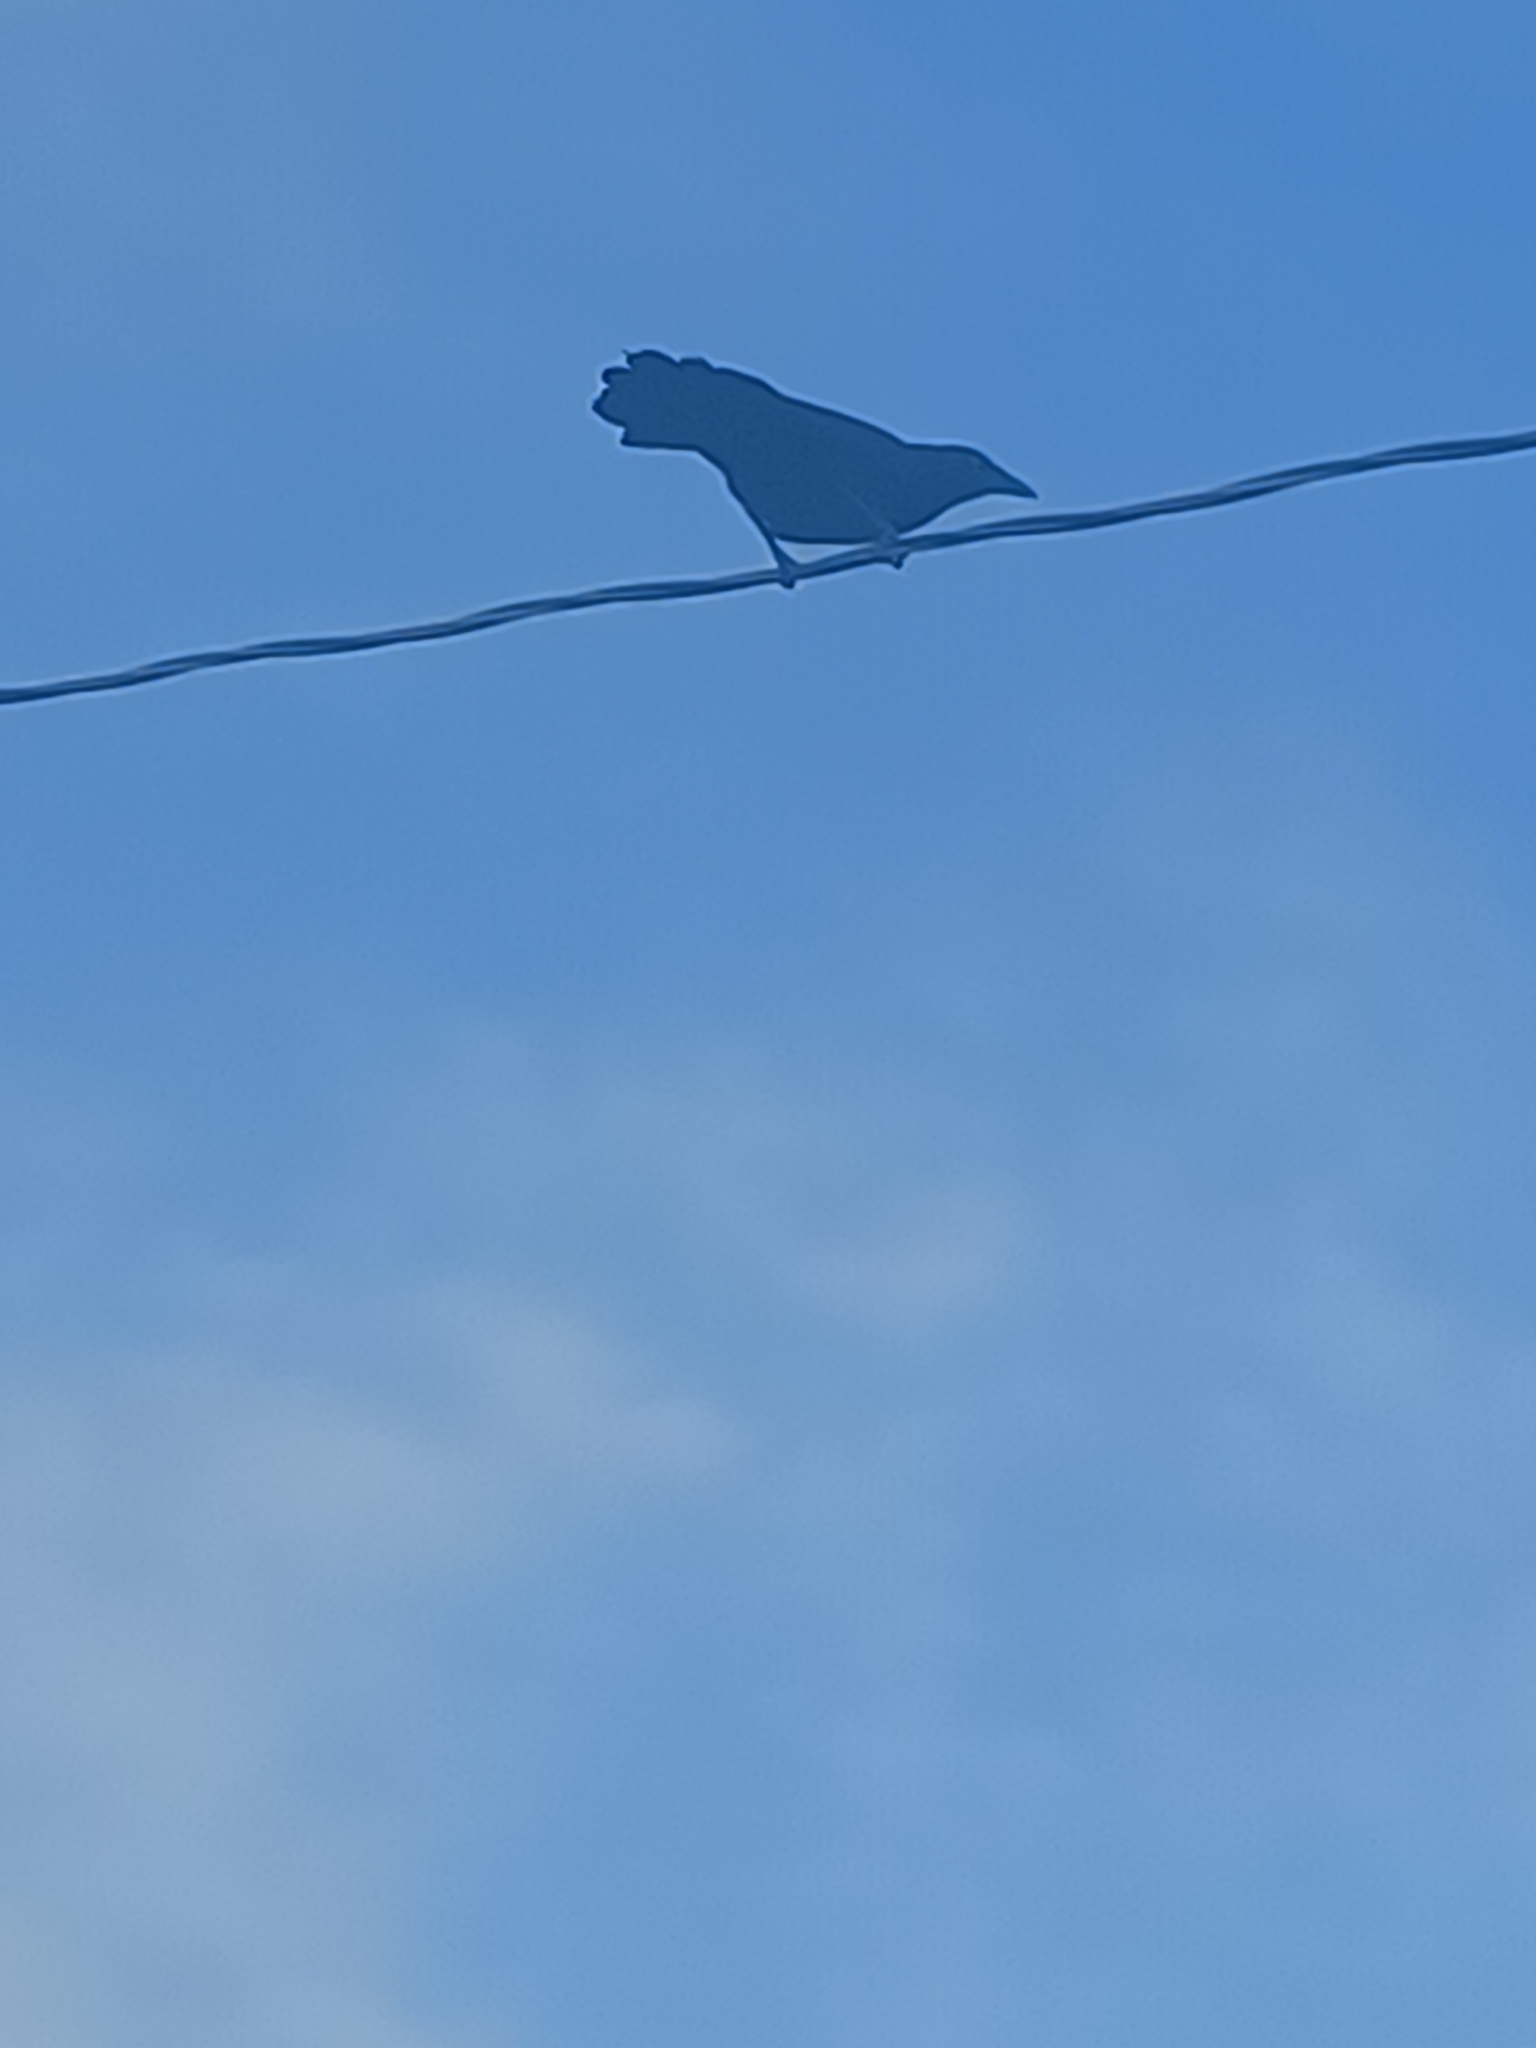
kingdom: Animalia
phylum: Chordata
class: Aves
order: Passeriformes
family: Corvidae
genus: Corvus
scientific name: Corvus brachyrhynchos
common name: American crow
